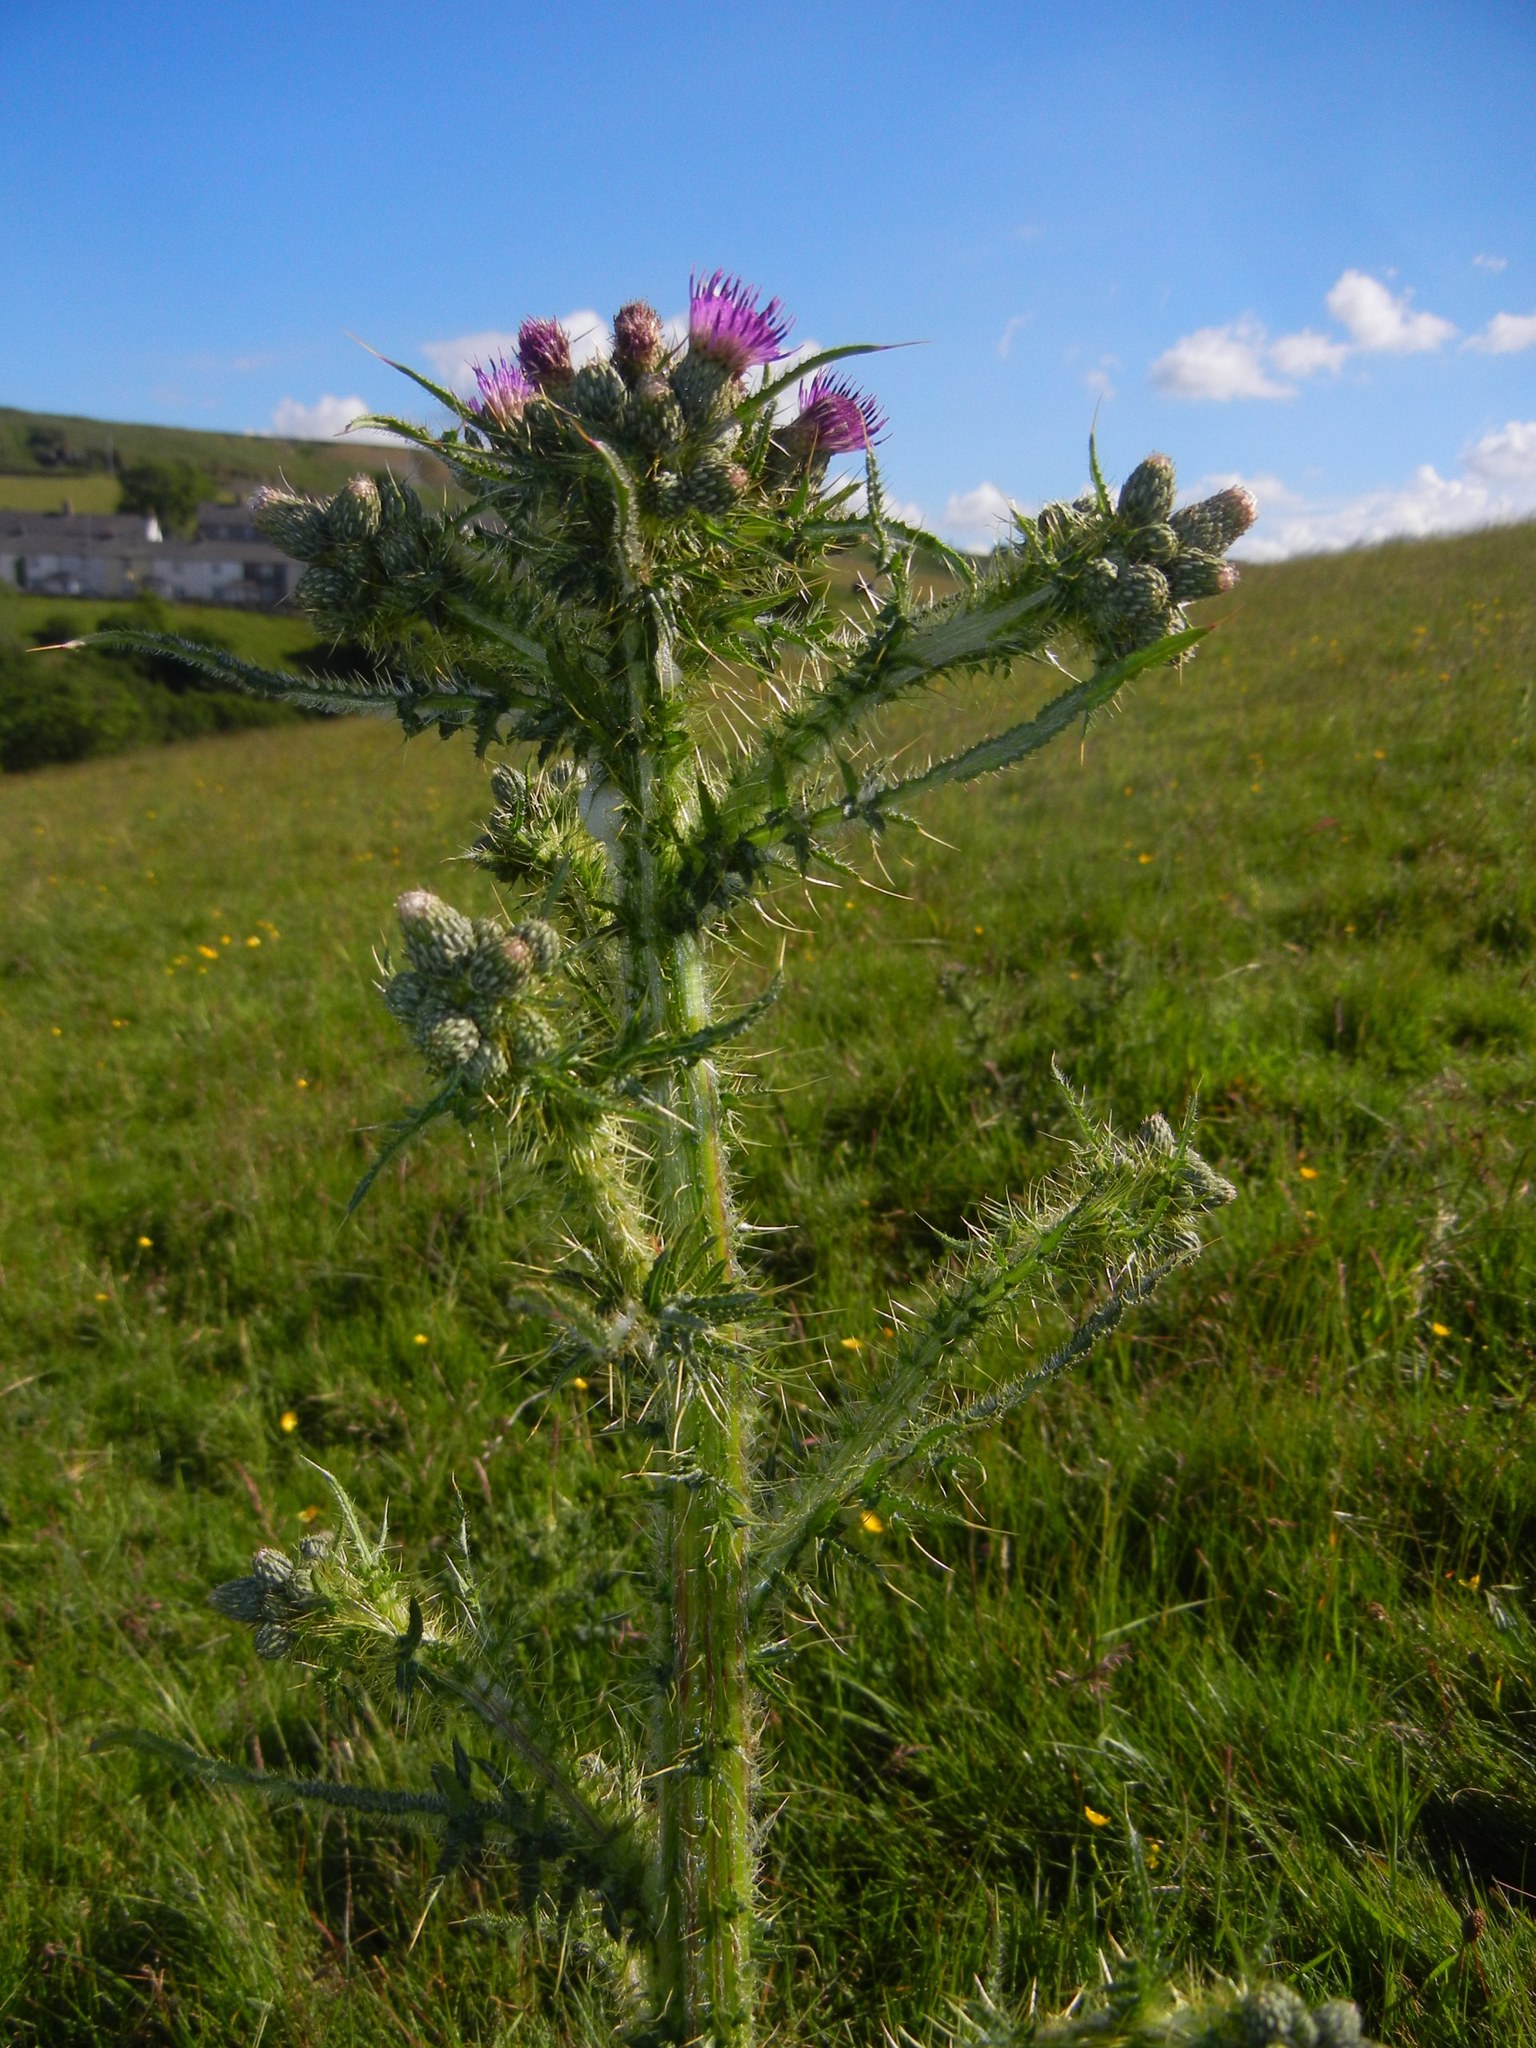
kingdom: Plantae
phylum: Tracheophyta
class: Magnoliopsida
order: Asterales
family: Asteraceae
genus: Cirsium
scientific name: Cirsium palustre
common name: Marsh thistle
